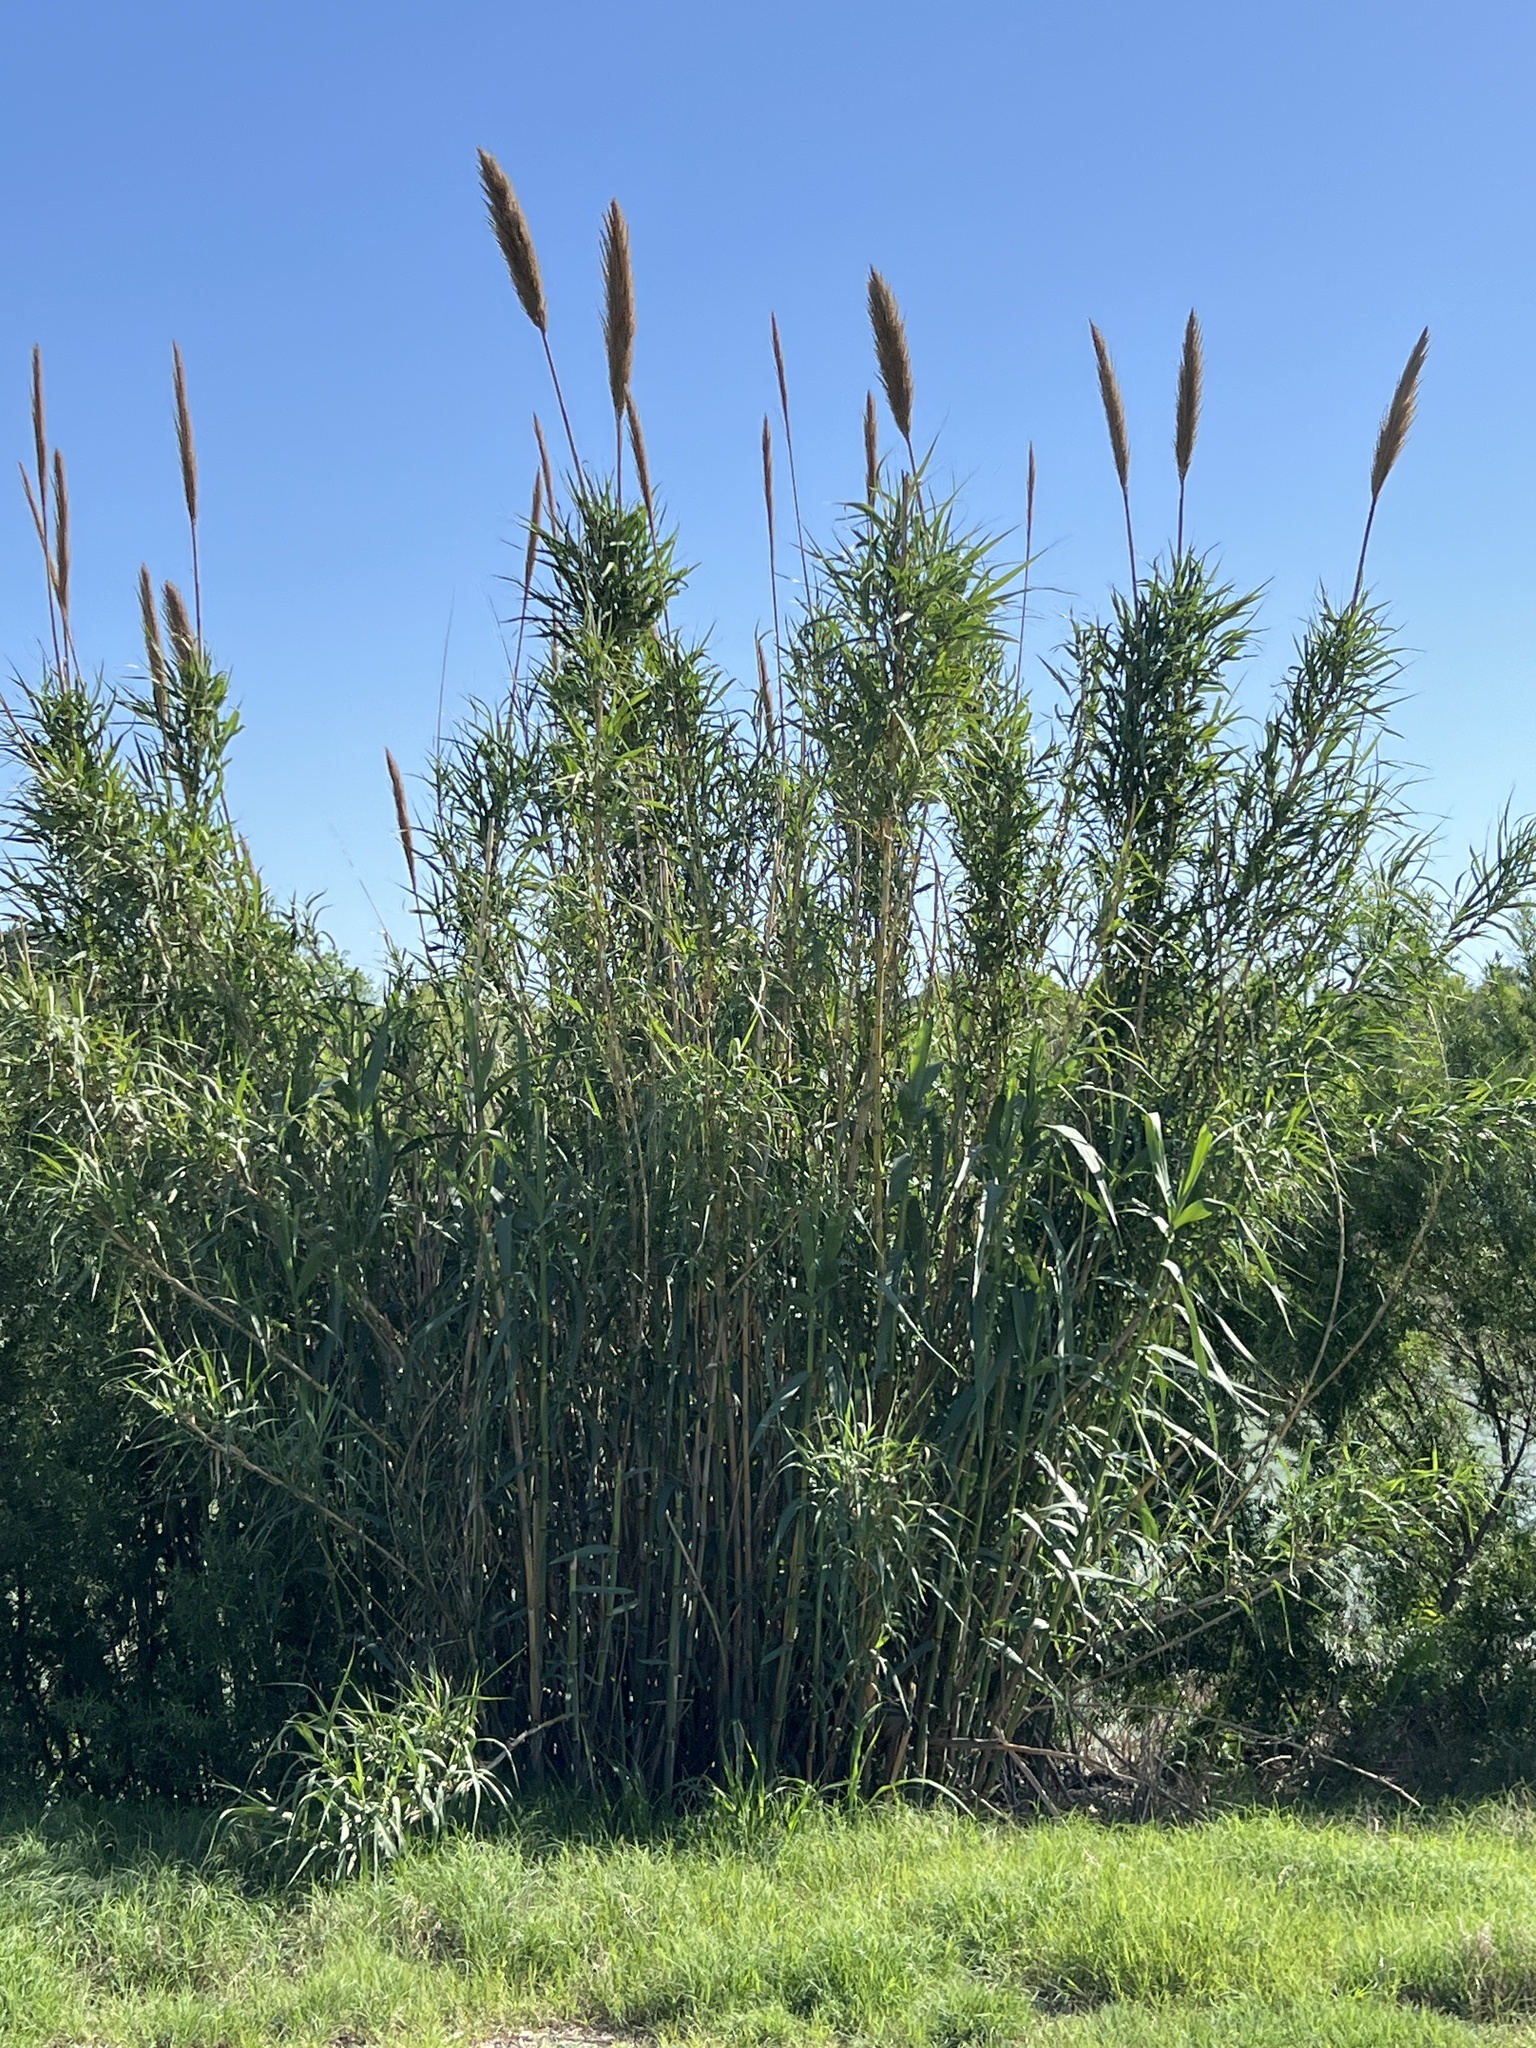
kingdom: Plantae
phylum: Tracheophyta
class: Liliopsida
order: Poales
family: Poaceae
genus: Arundo
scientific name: Arundo donax
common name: Giant reed
